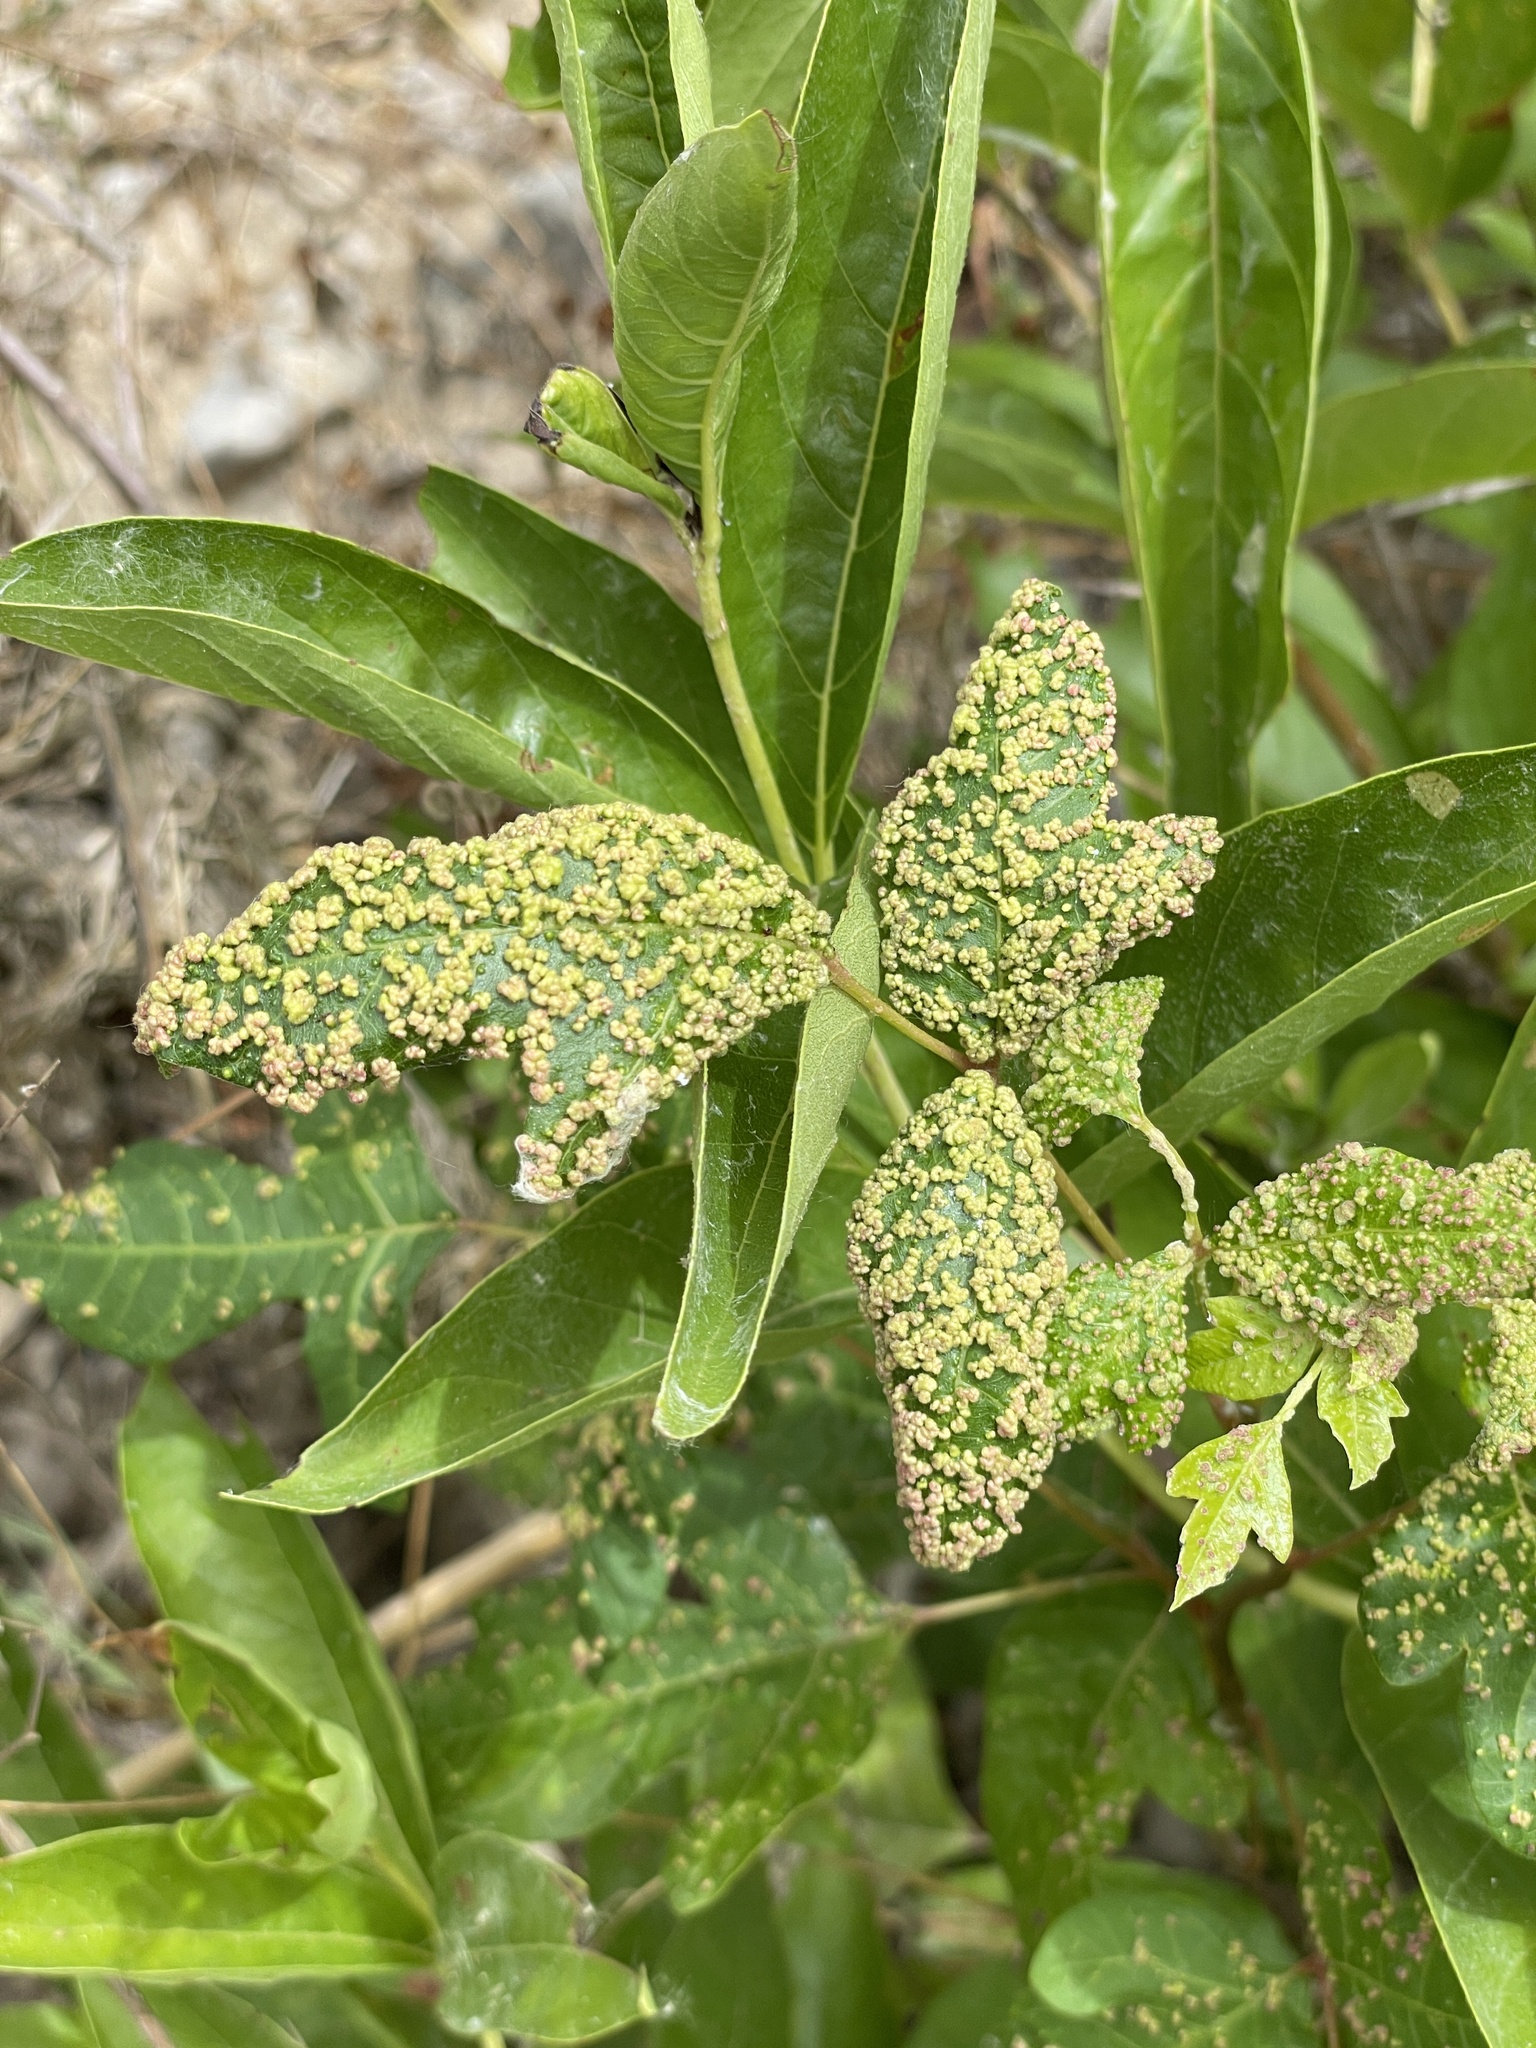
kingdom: Animalia
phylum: Arthropoda
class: Arachnida
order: Trombidiformes
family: Eriophyidae
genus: Aculops
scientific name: Aculops
